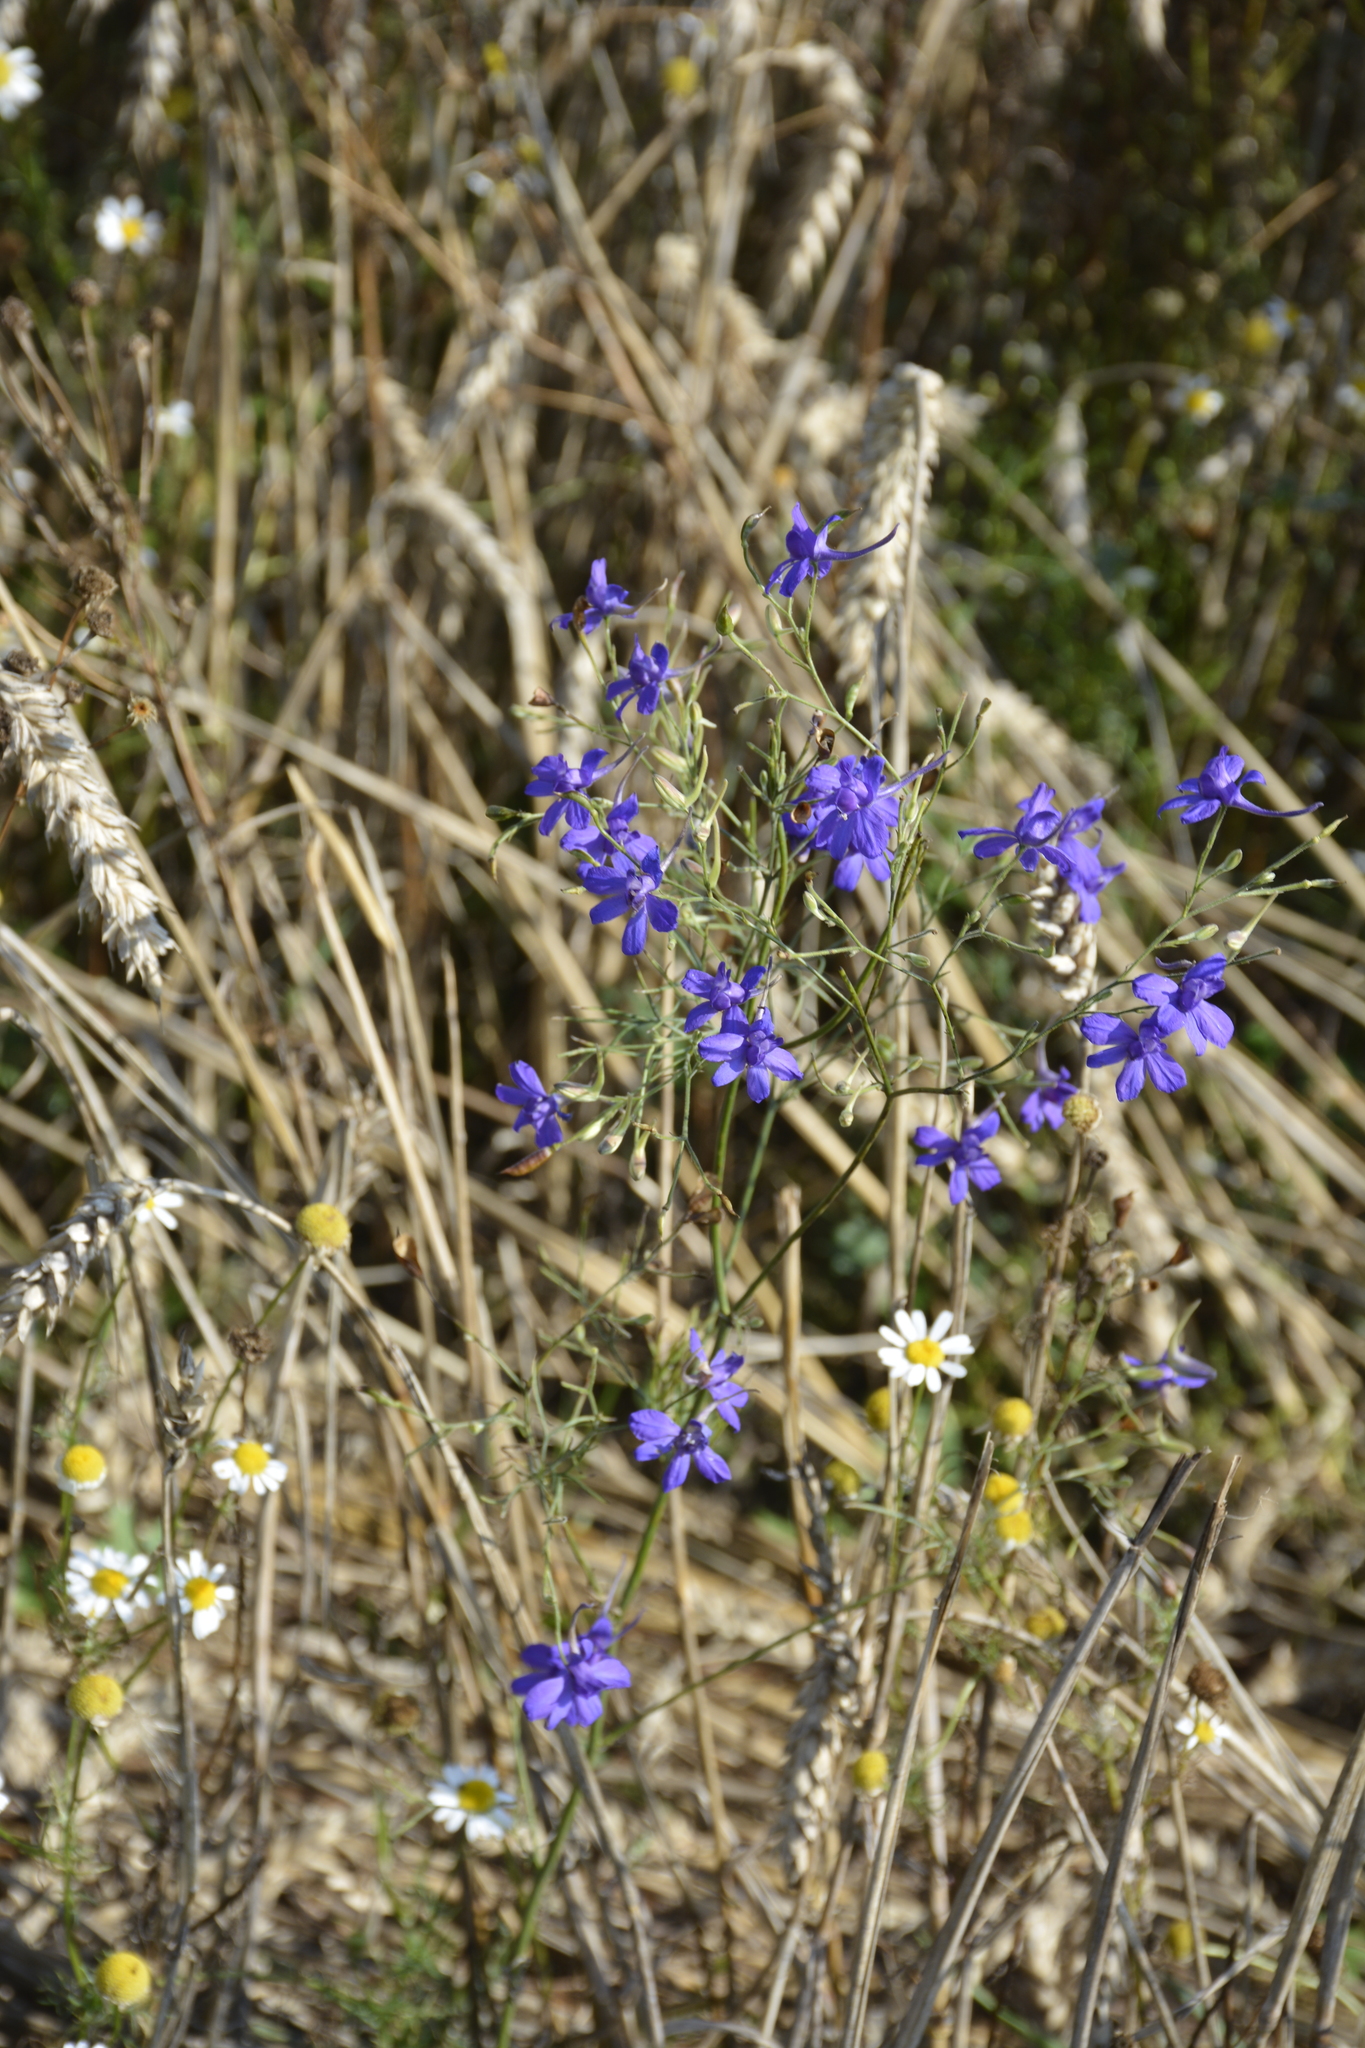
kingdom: Plantae
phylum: Tracheophyta
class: Magnoliopsida
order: Ranunculales
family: Ranunculaceae
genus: Delphinium
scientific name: Delphinium consolida
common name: Branching larkspur
